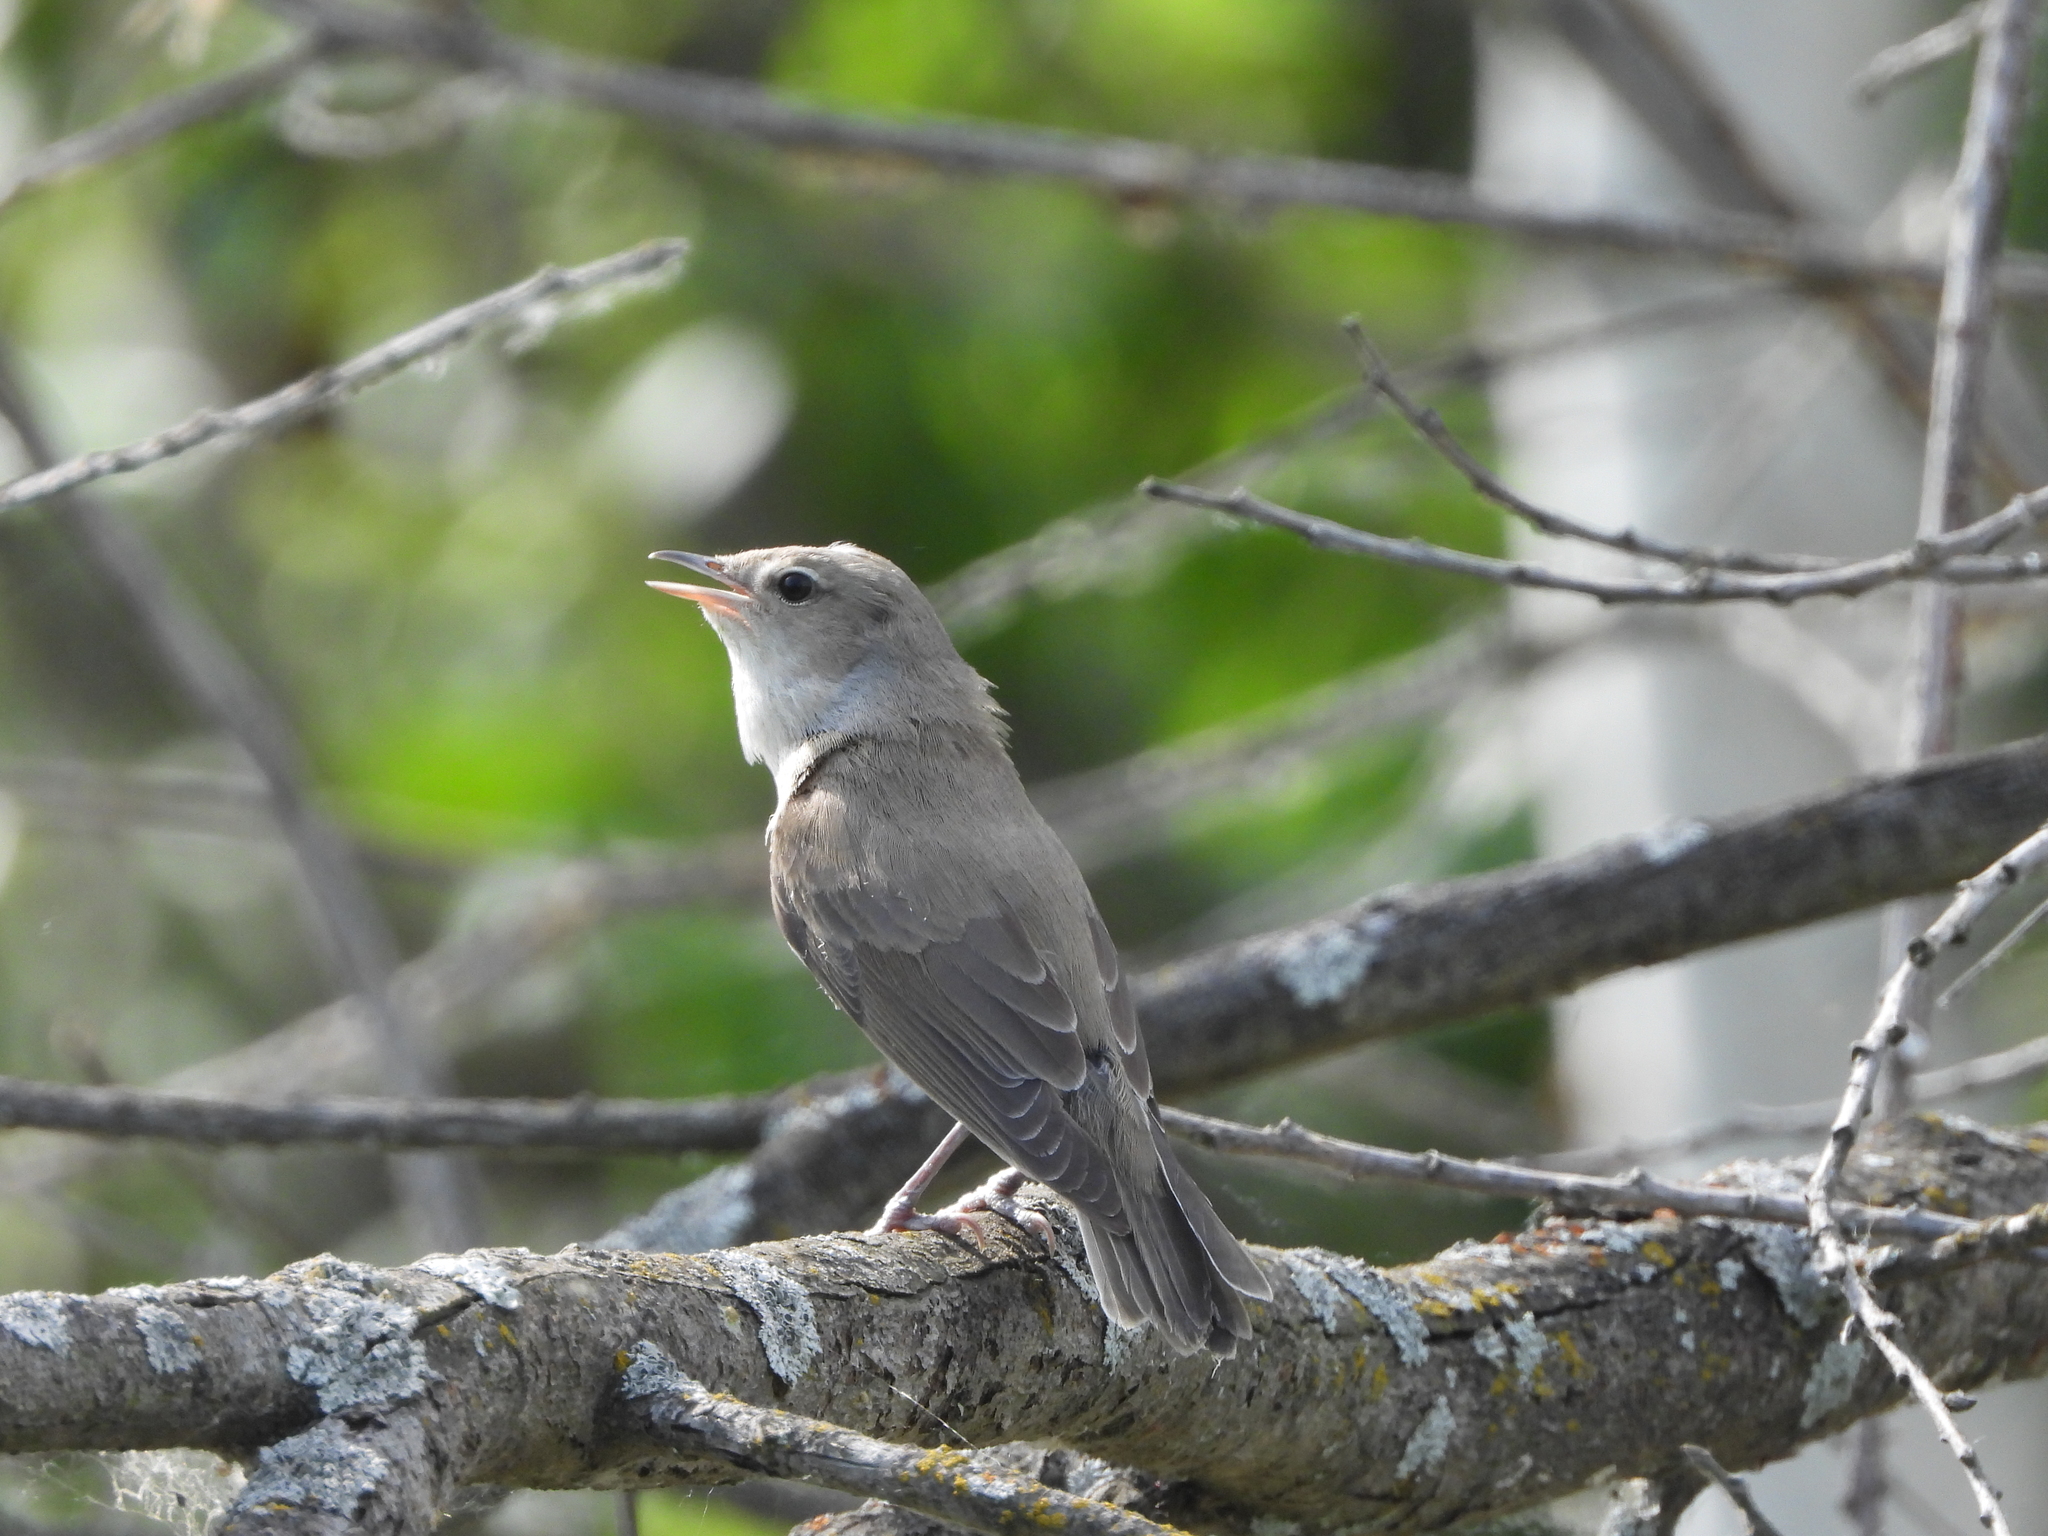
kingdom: Animalia
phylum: Chordata
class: Aves
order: Passeriformes
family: Sylviidae
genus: Sylvia
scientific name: Sylvia borin
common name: Garden warbler
